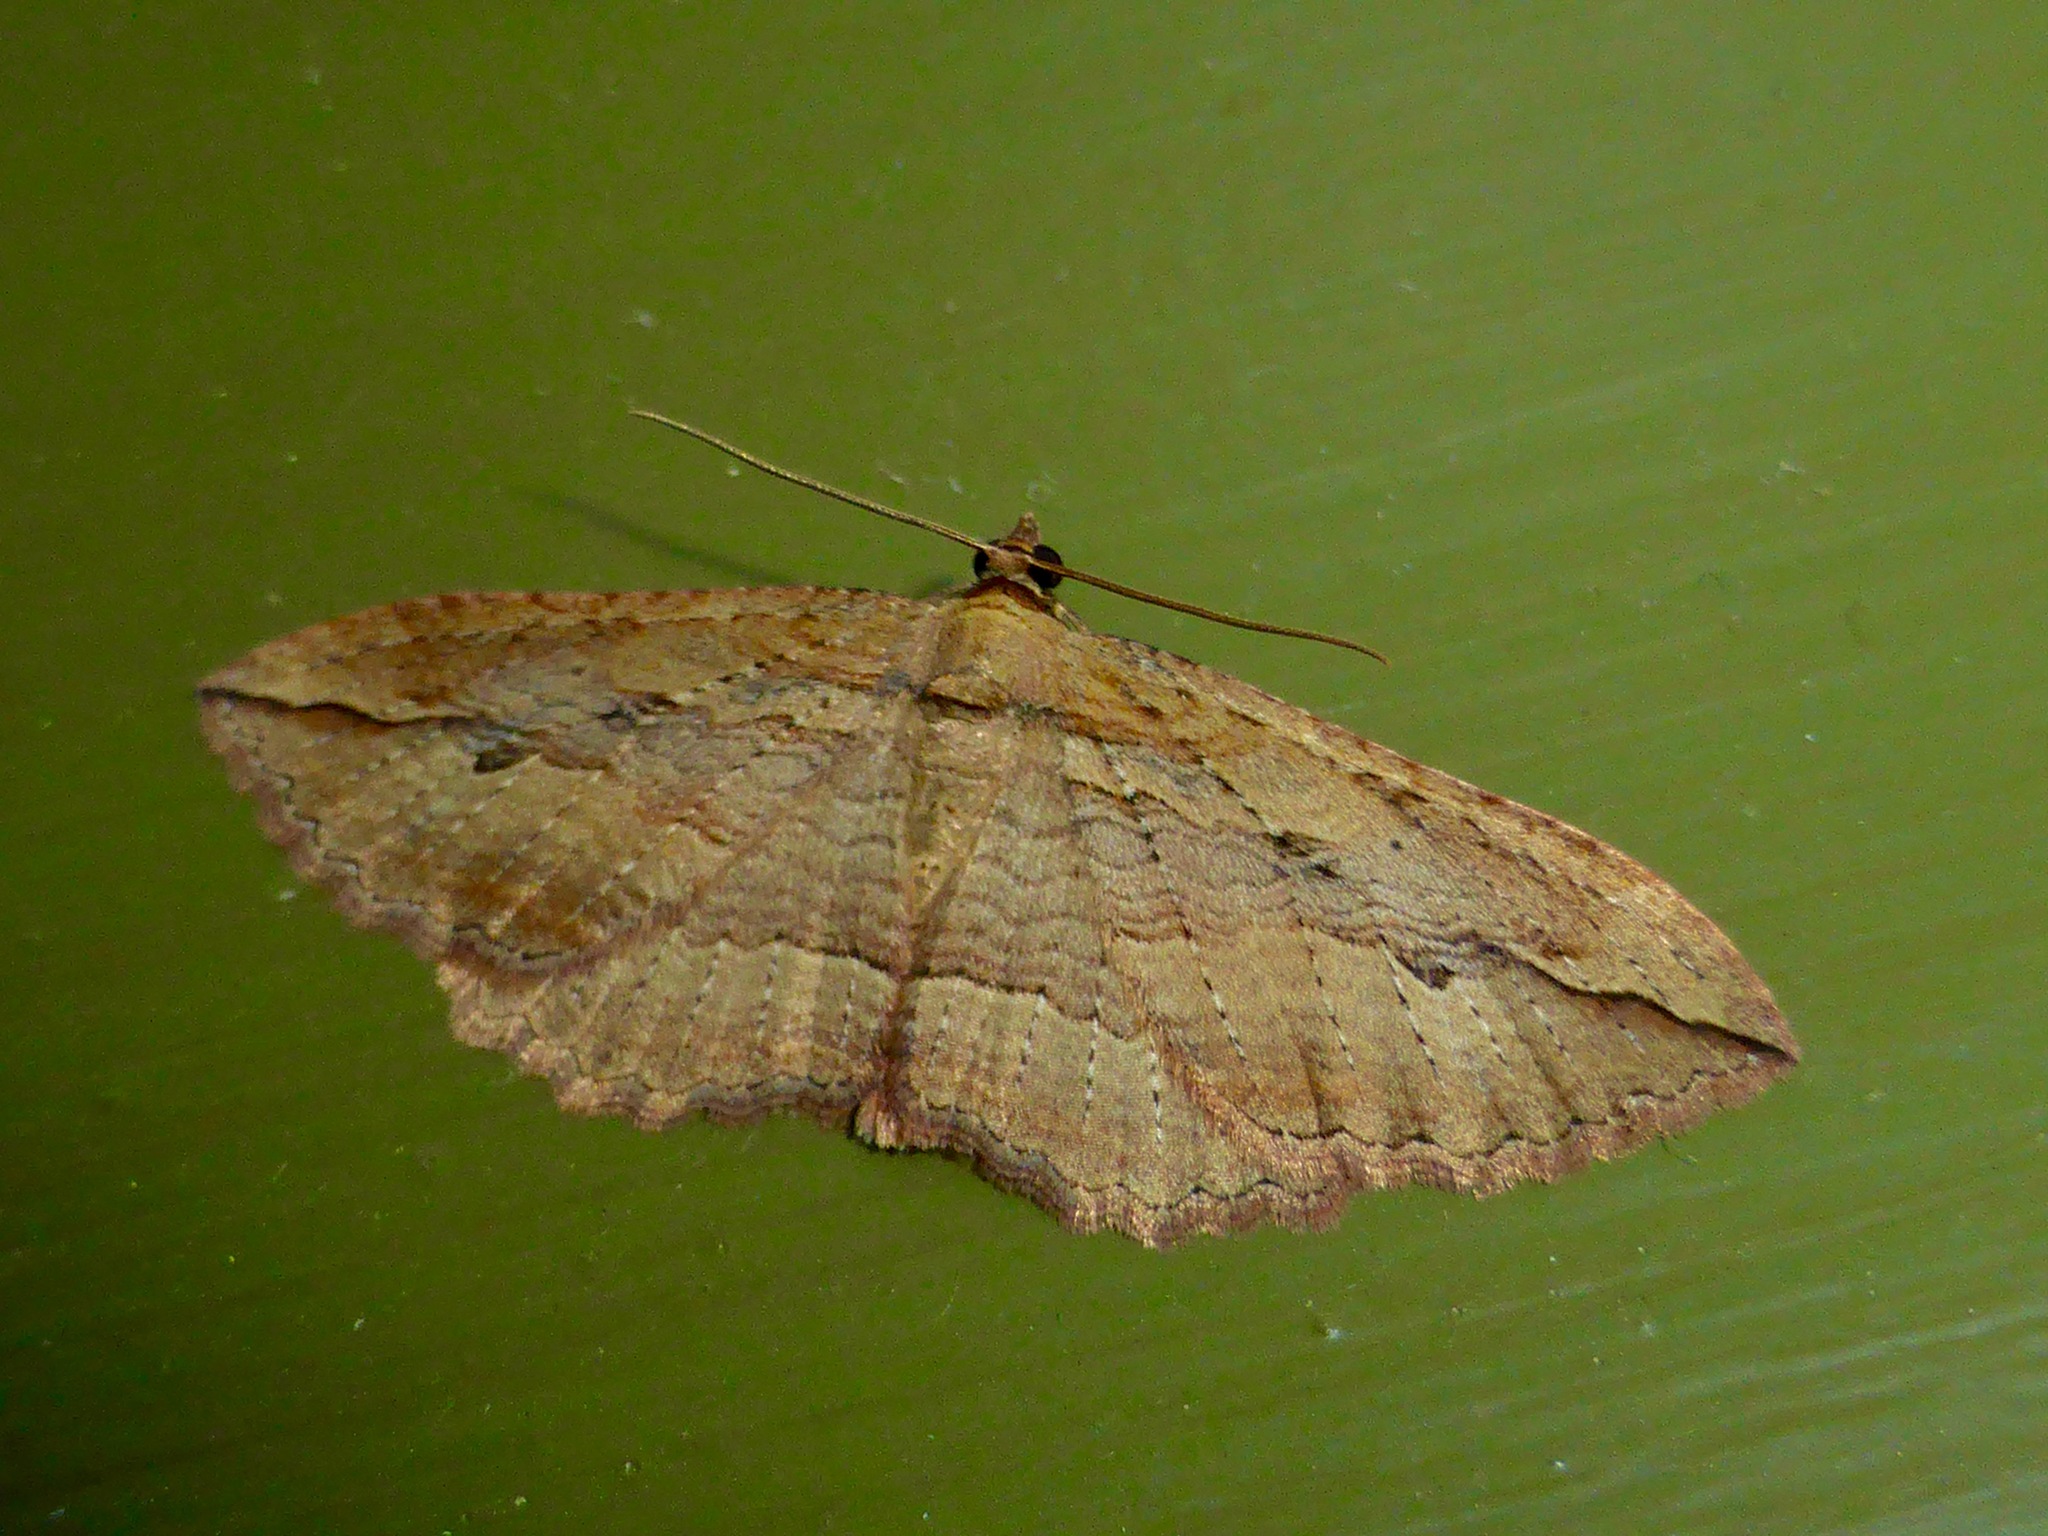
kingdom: Animalia
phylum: Arthropoda
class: Insecta
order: Lepidoptera
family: Geometridae
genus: Austrocidaria
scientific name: Austrocidaria gobiata
